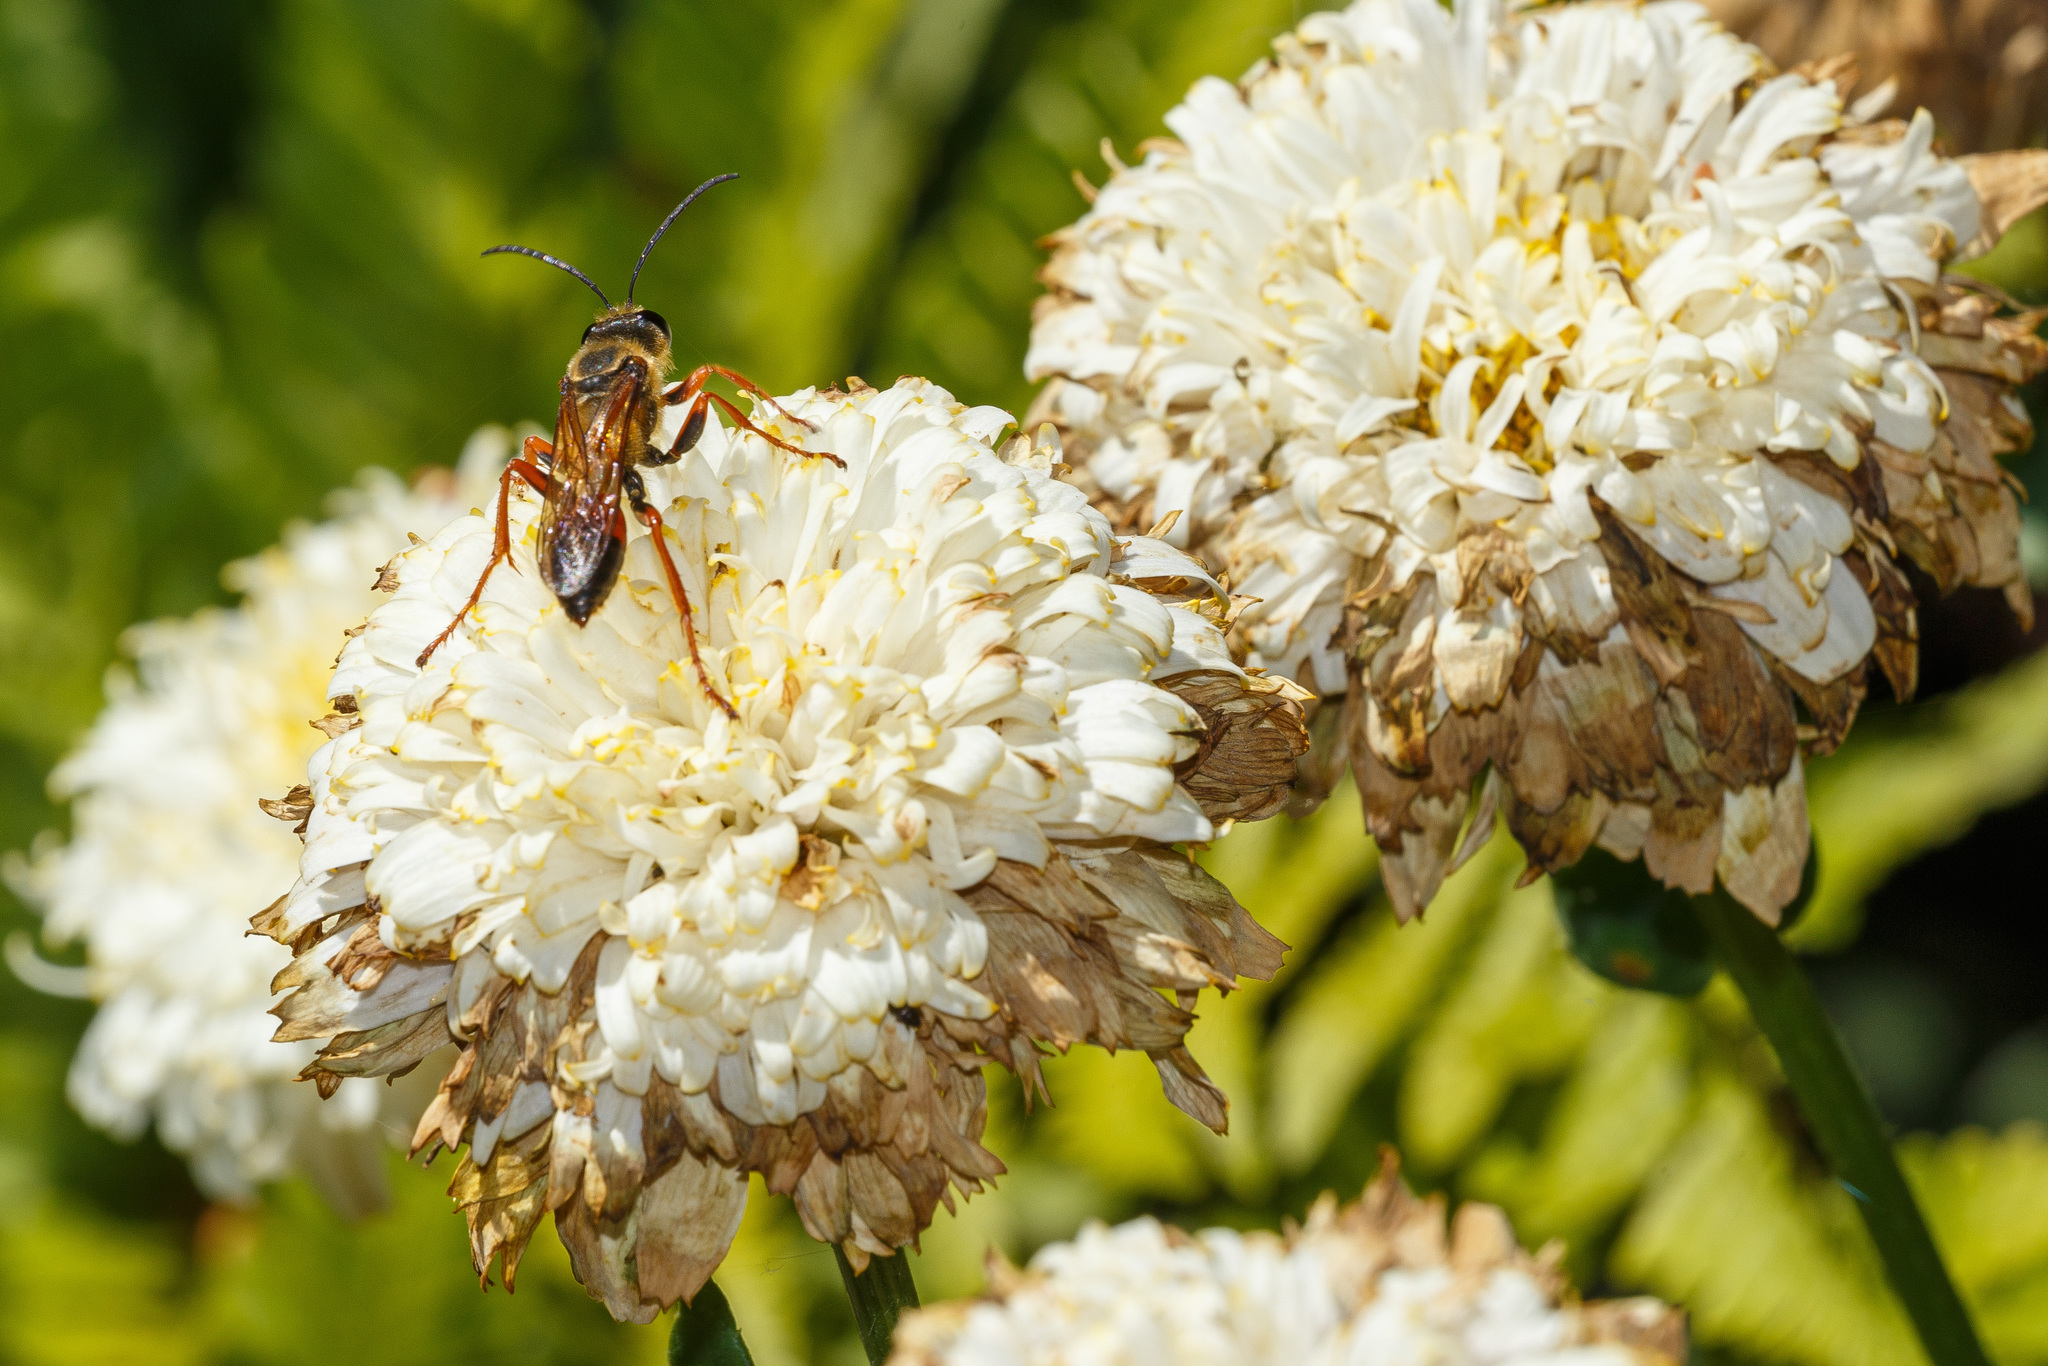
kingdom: Animalia
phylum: Arthropoda
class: Insecta
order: Hymenoptera
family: Sphecidae
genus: Sphex
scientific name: Sphex ichneumoneus
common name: Great golden digger wasp
